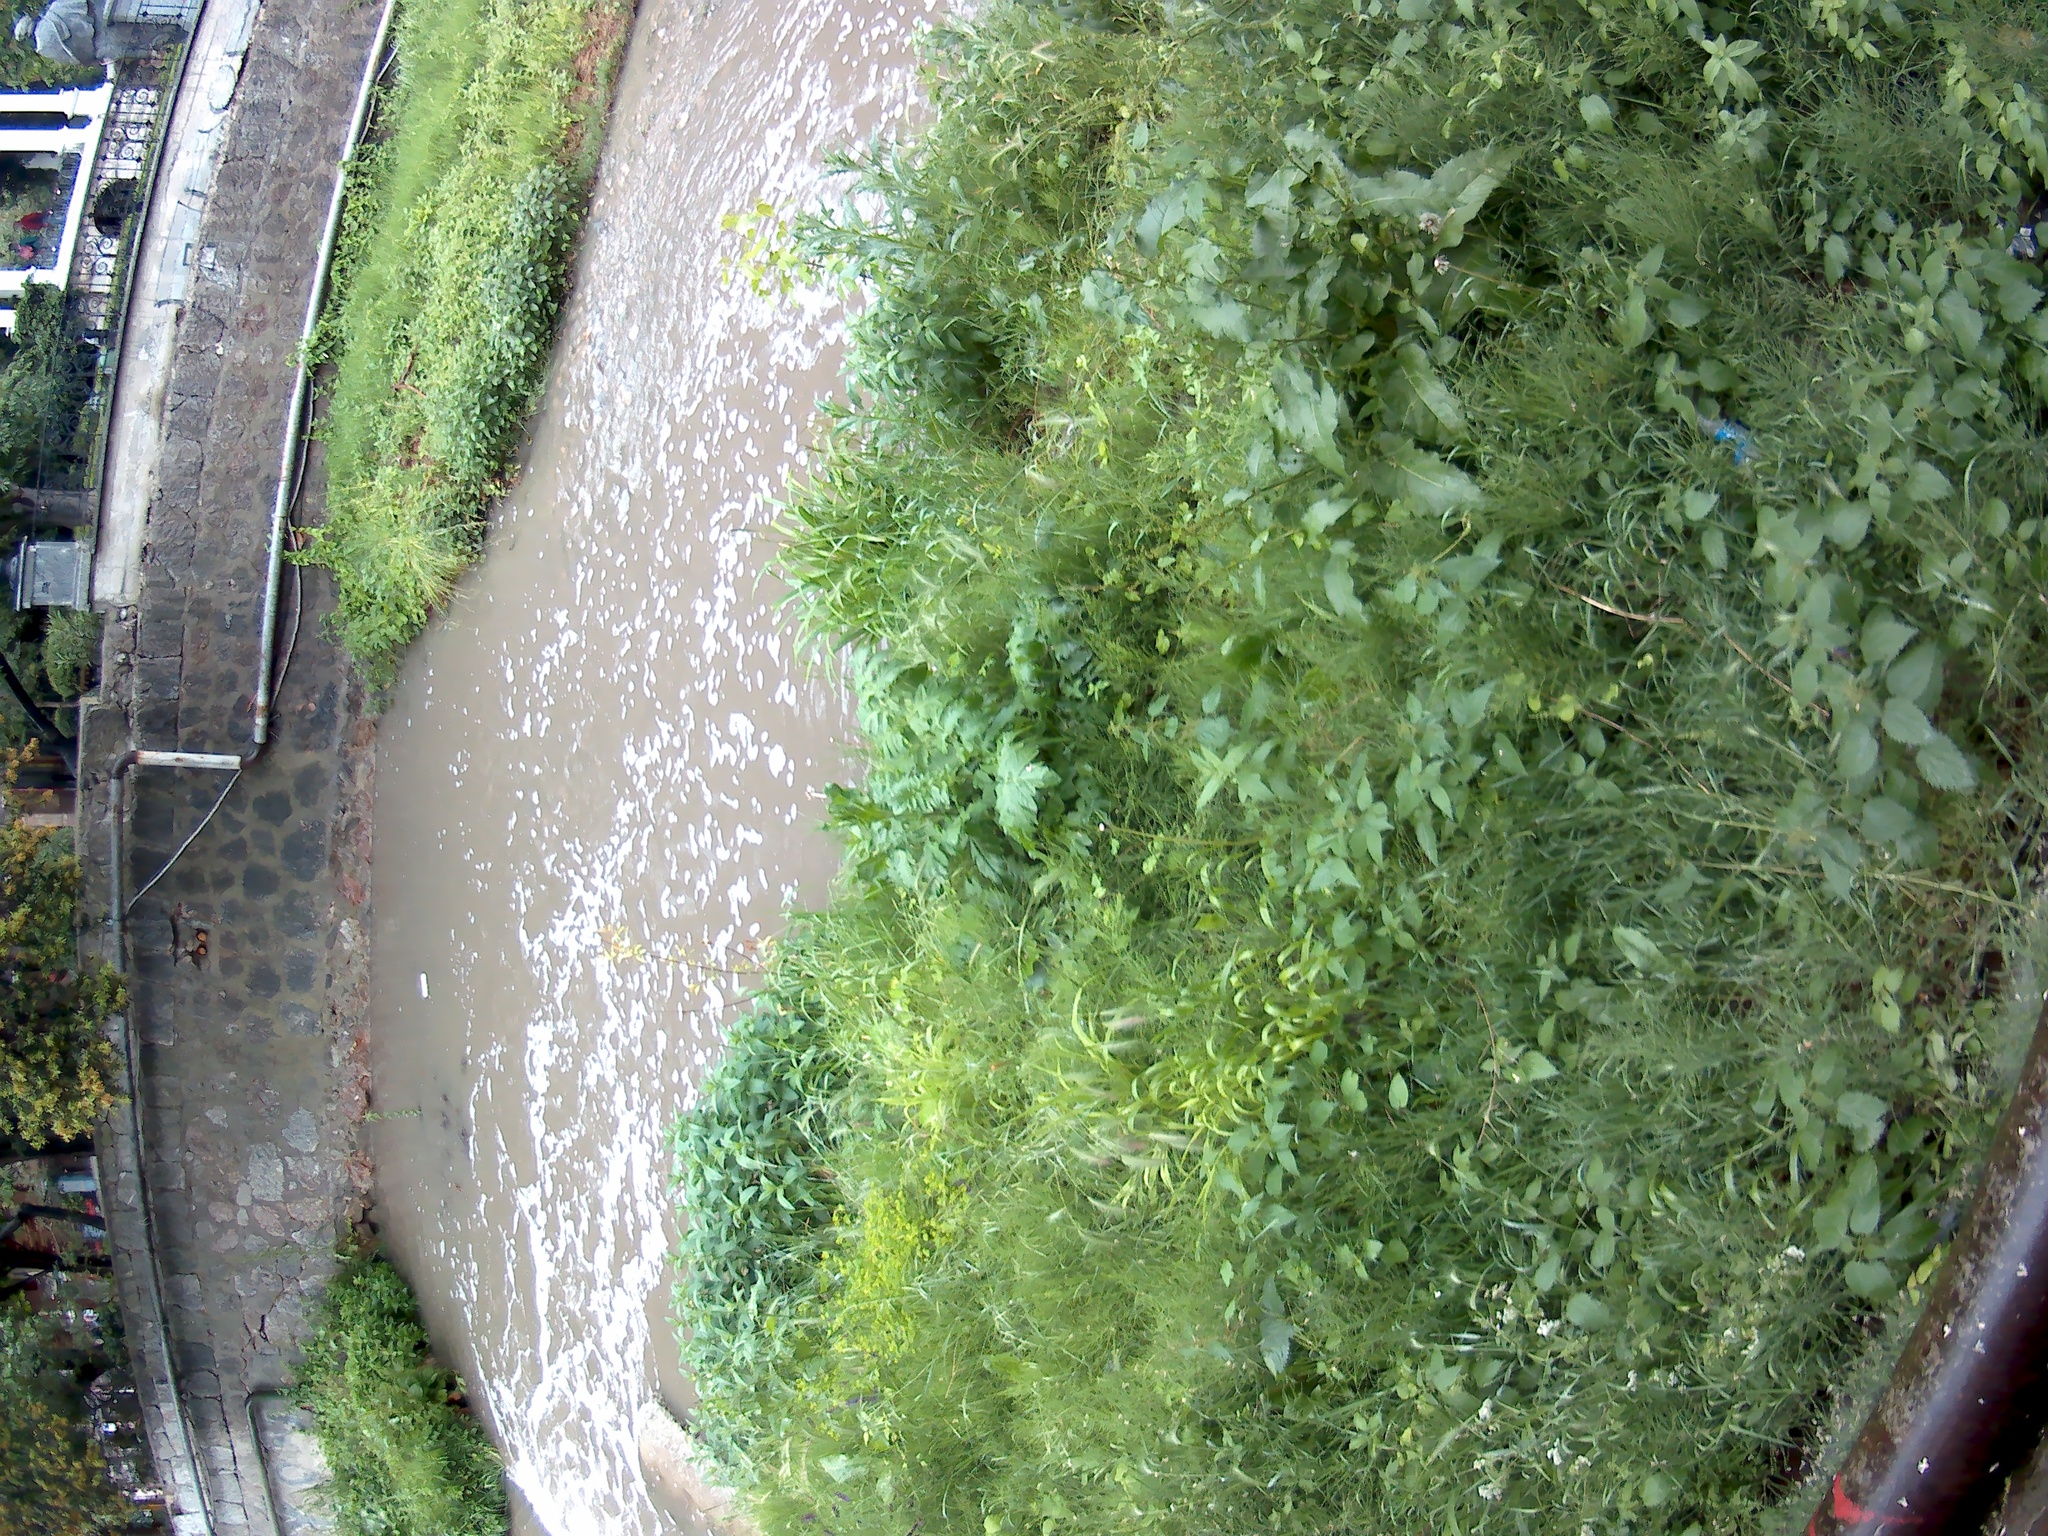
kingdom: Plantae
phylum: Tracheophyta
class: Magnoliopsida
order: Dipsacales
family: Viburnaceae
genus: Sambucus
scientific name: Sambucus ebulus
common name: Dwarf elder
